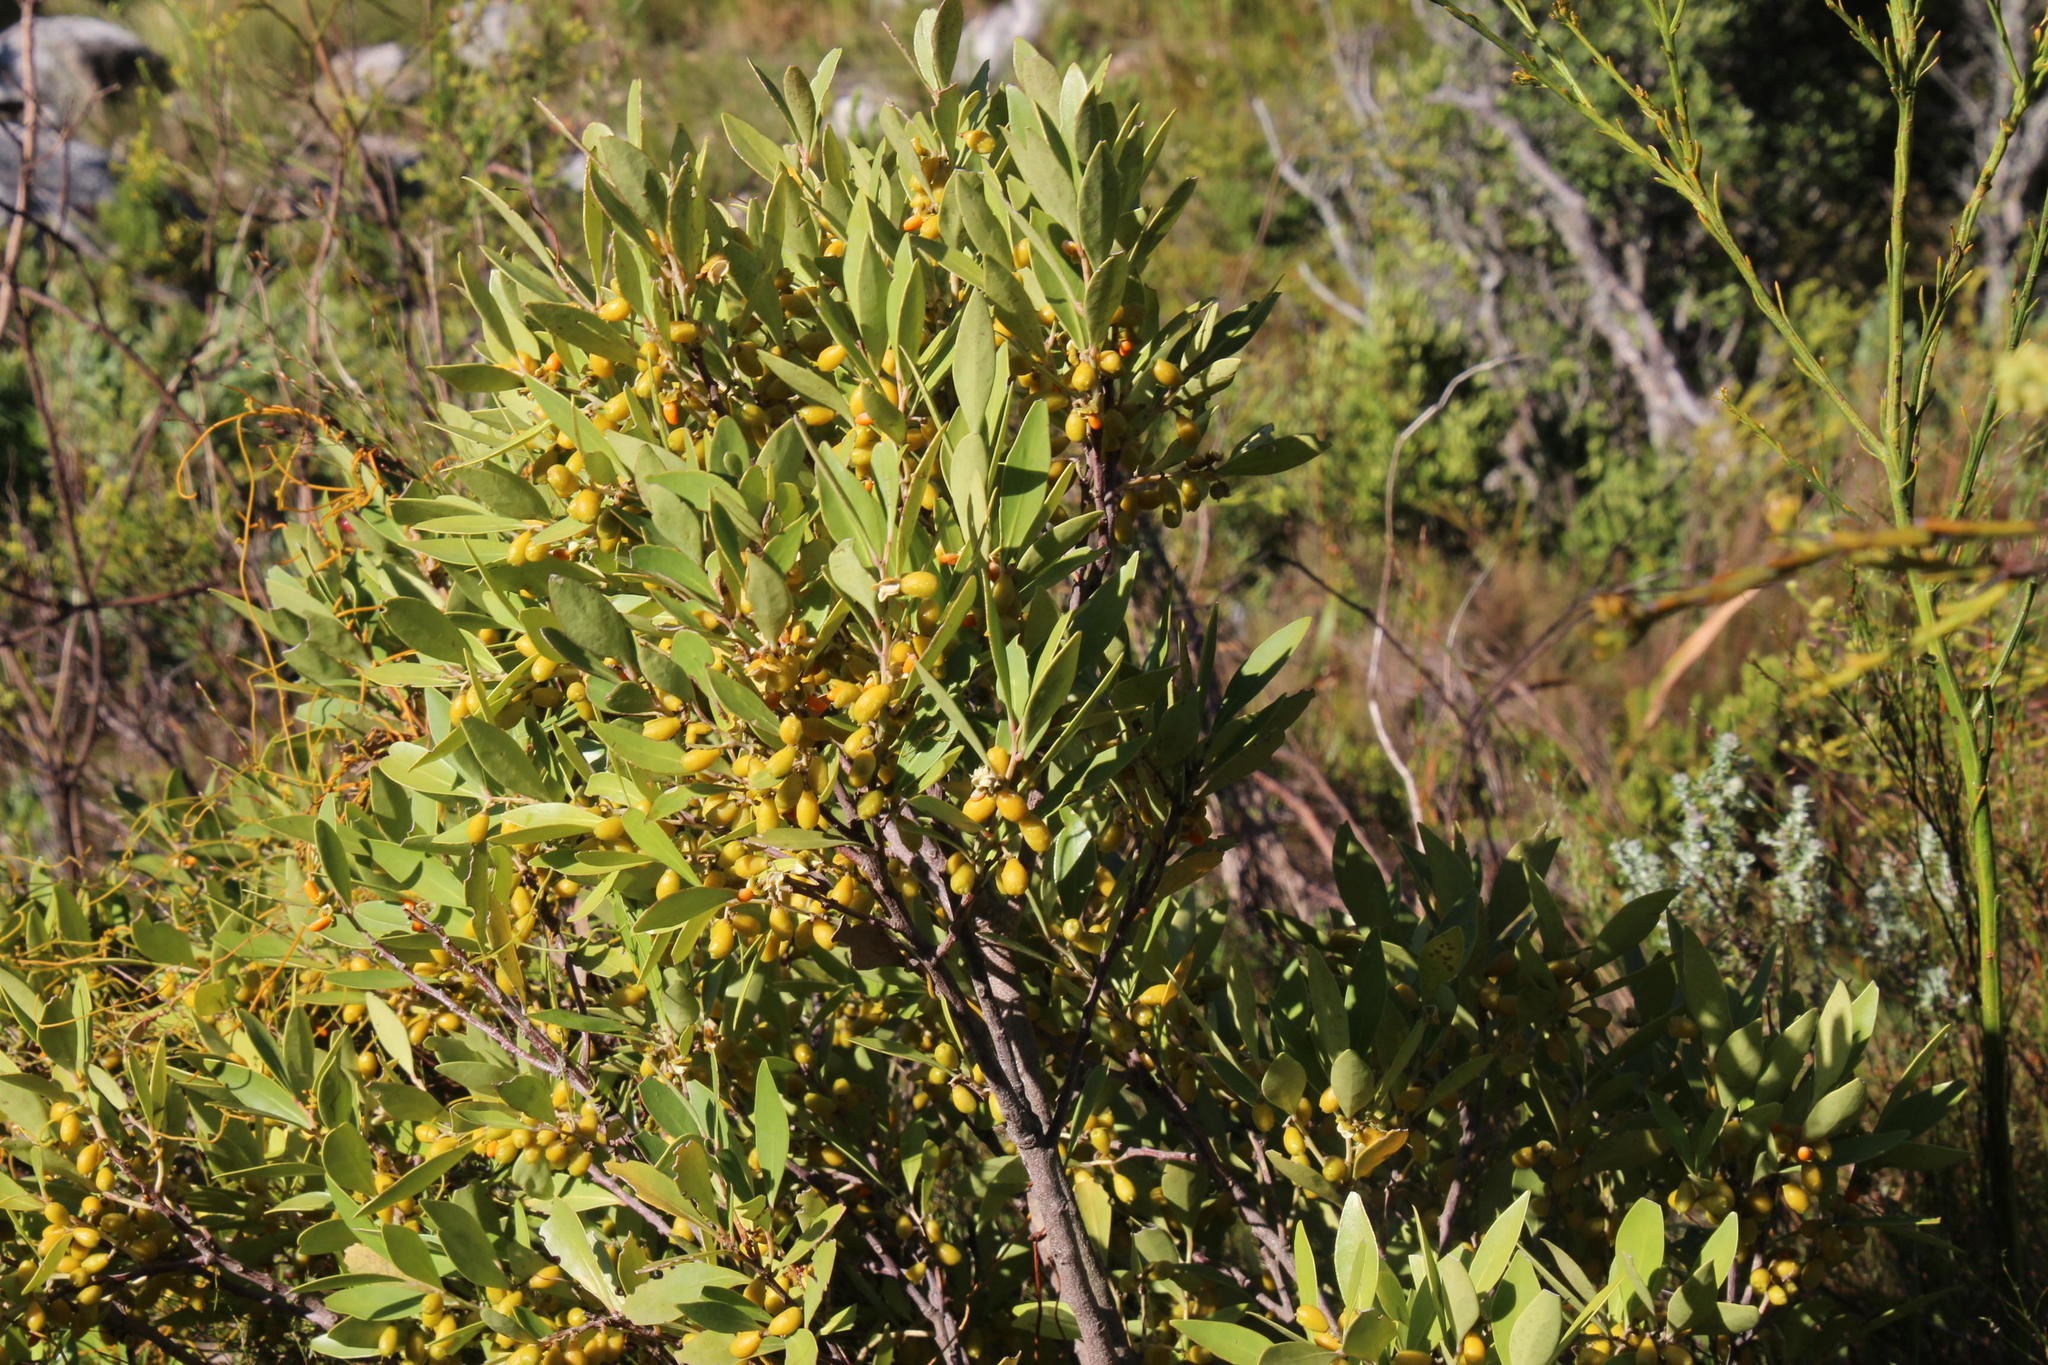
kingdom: Plantae
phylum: Tracheophyta
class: Magnoliopsida
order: Celastrales
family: Celastraceae
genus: Gymnosporia
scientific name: Gymnosporia laurina
